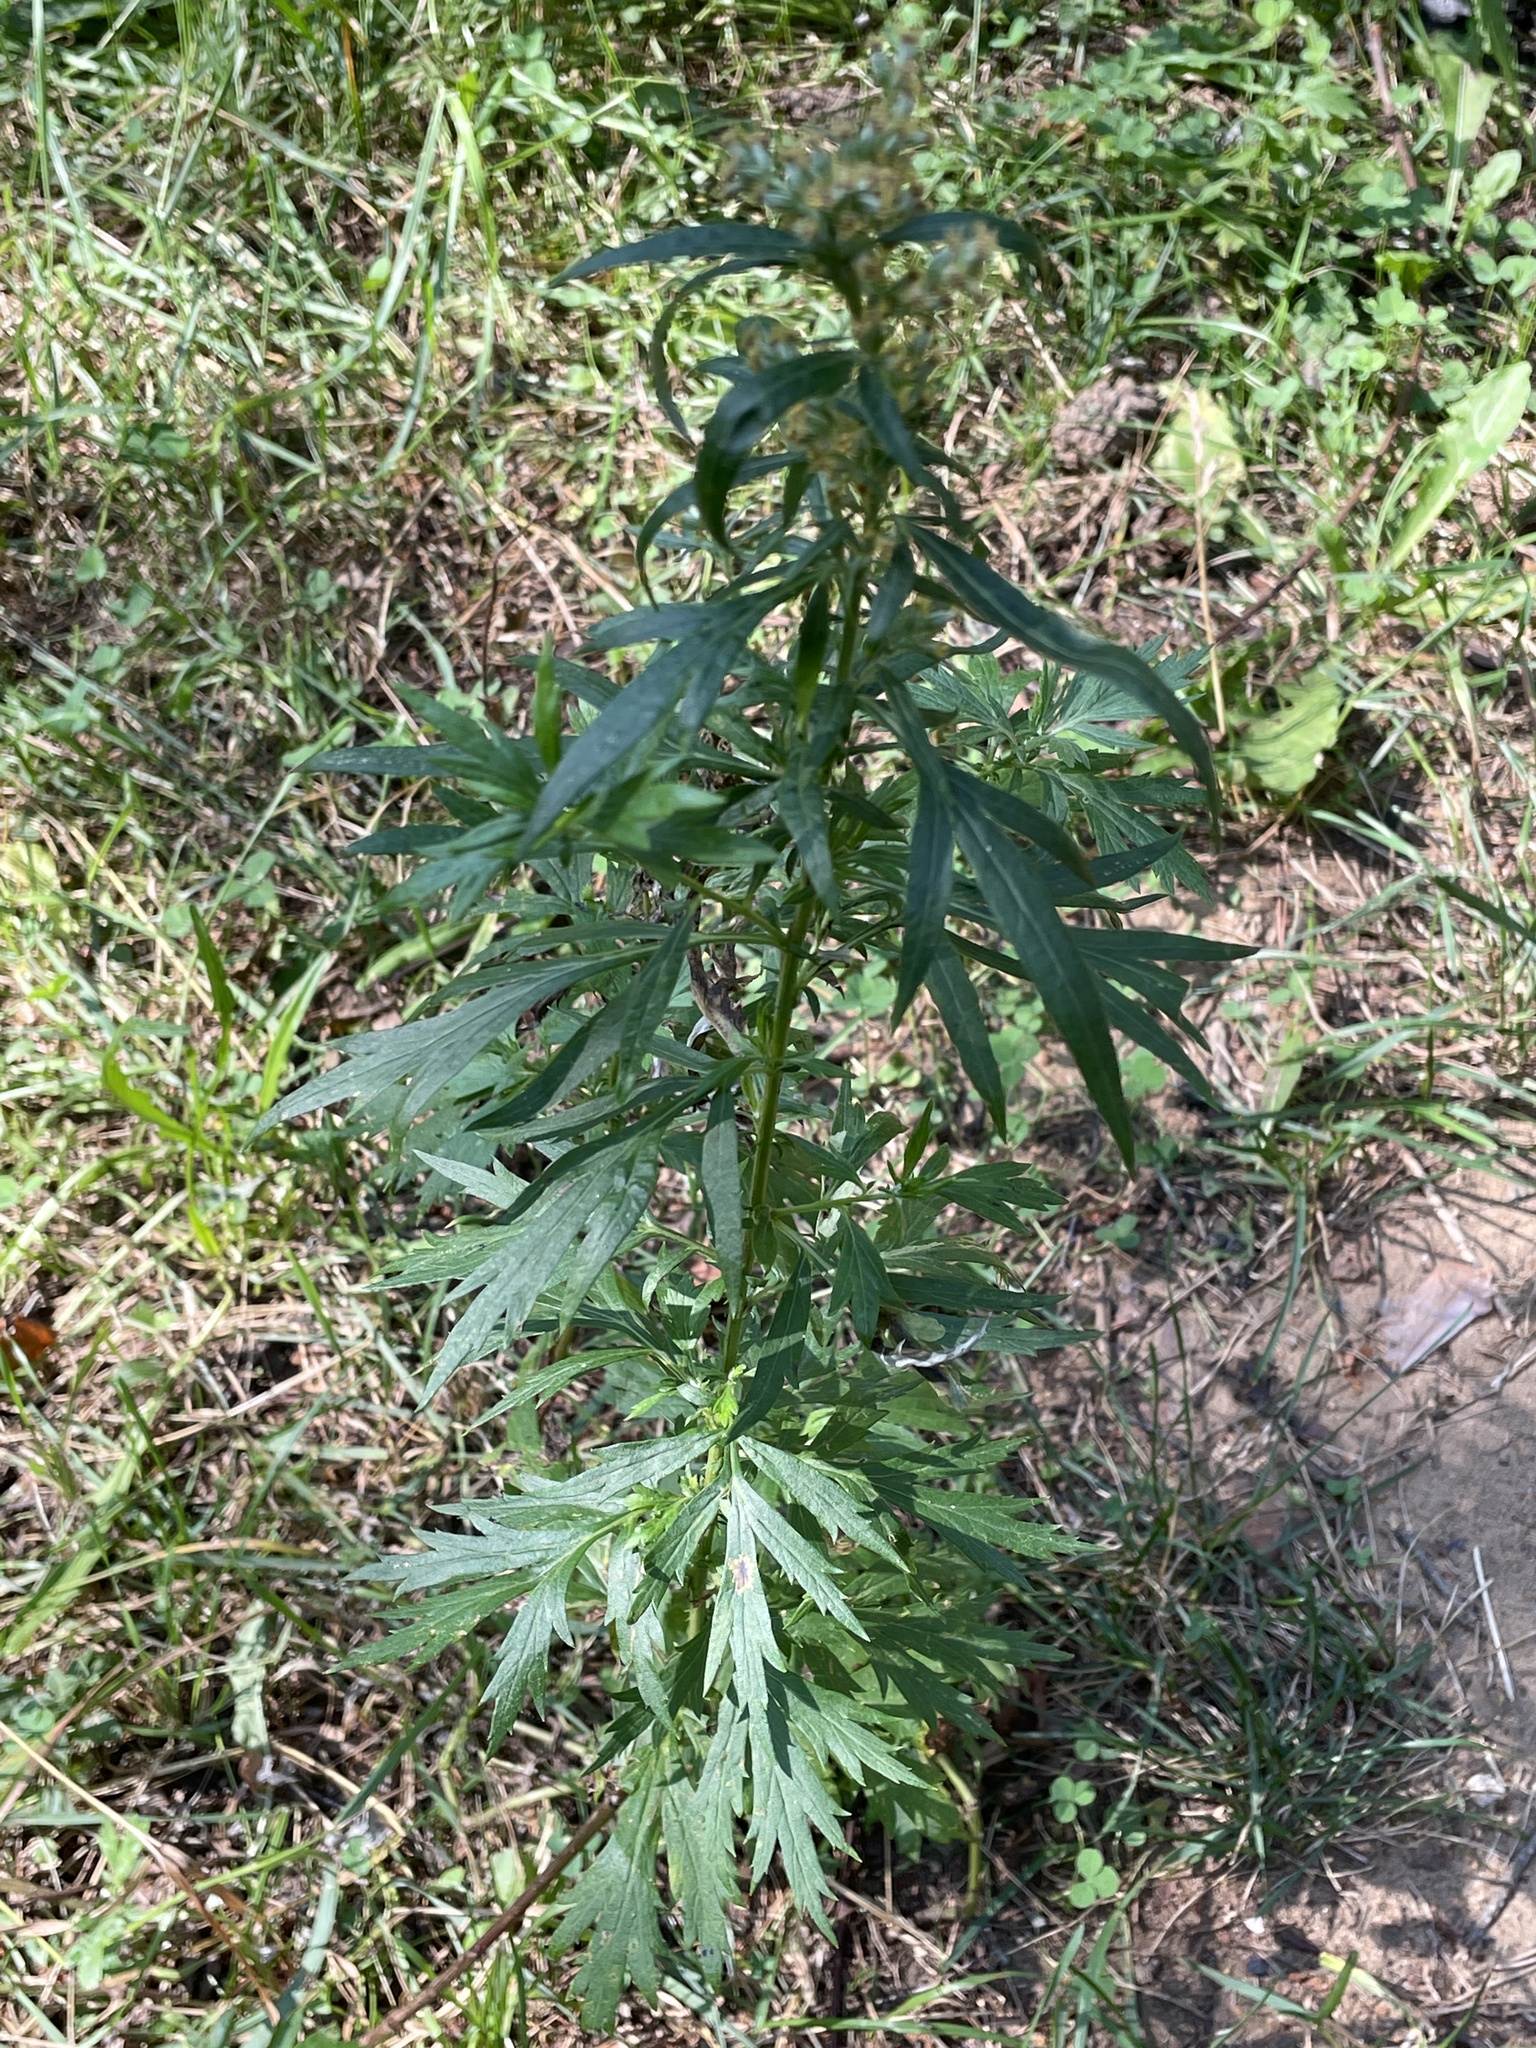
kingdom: Plantae
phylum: Tracheophyta
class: Magnoliopsida
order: Asterales
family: Asteraceae
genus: Artemisia
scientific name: Artemisia vulgaris
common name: Mugwort
